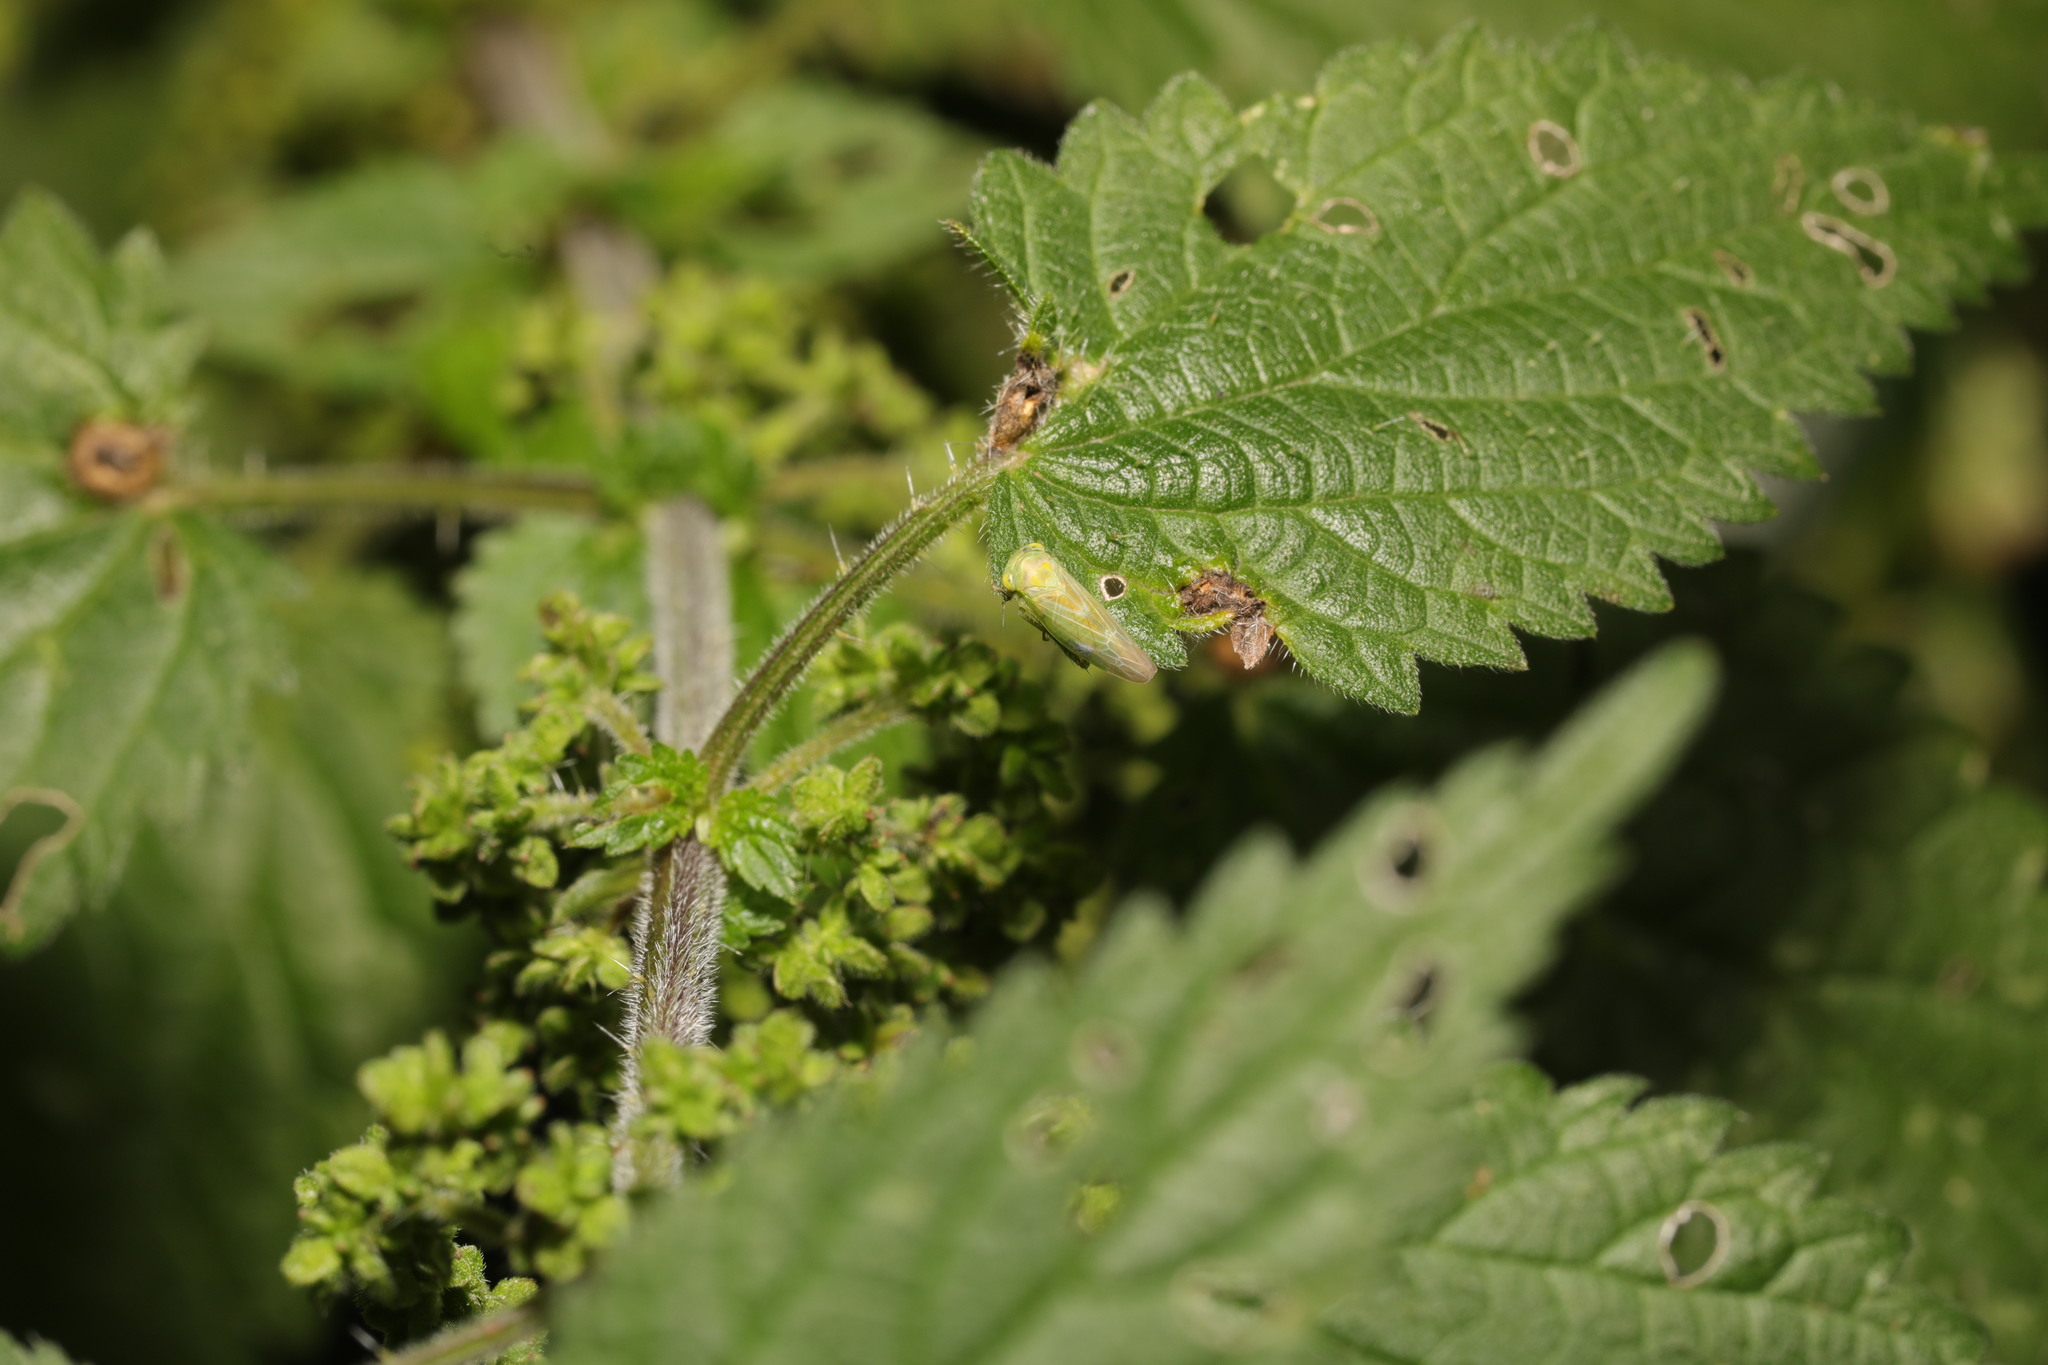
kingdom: Plantae
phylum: Tracheophyta
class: Magnoliopsida
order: Rosales
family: Urticaceae
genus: Urtica
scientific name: Urtica dioica
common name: Common nettle
